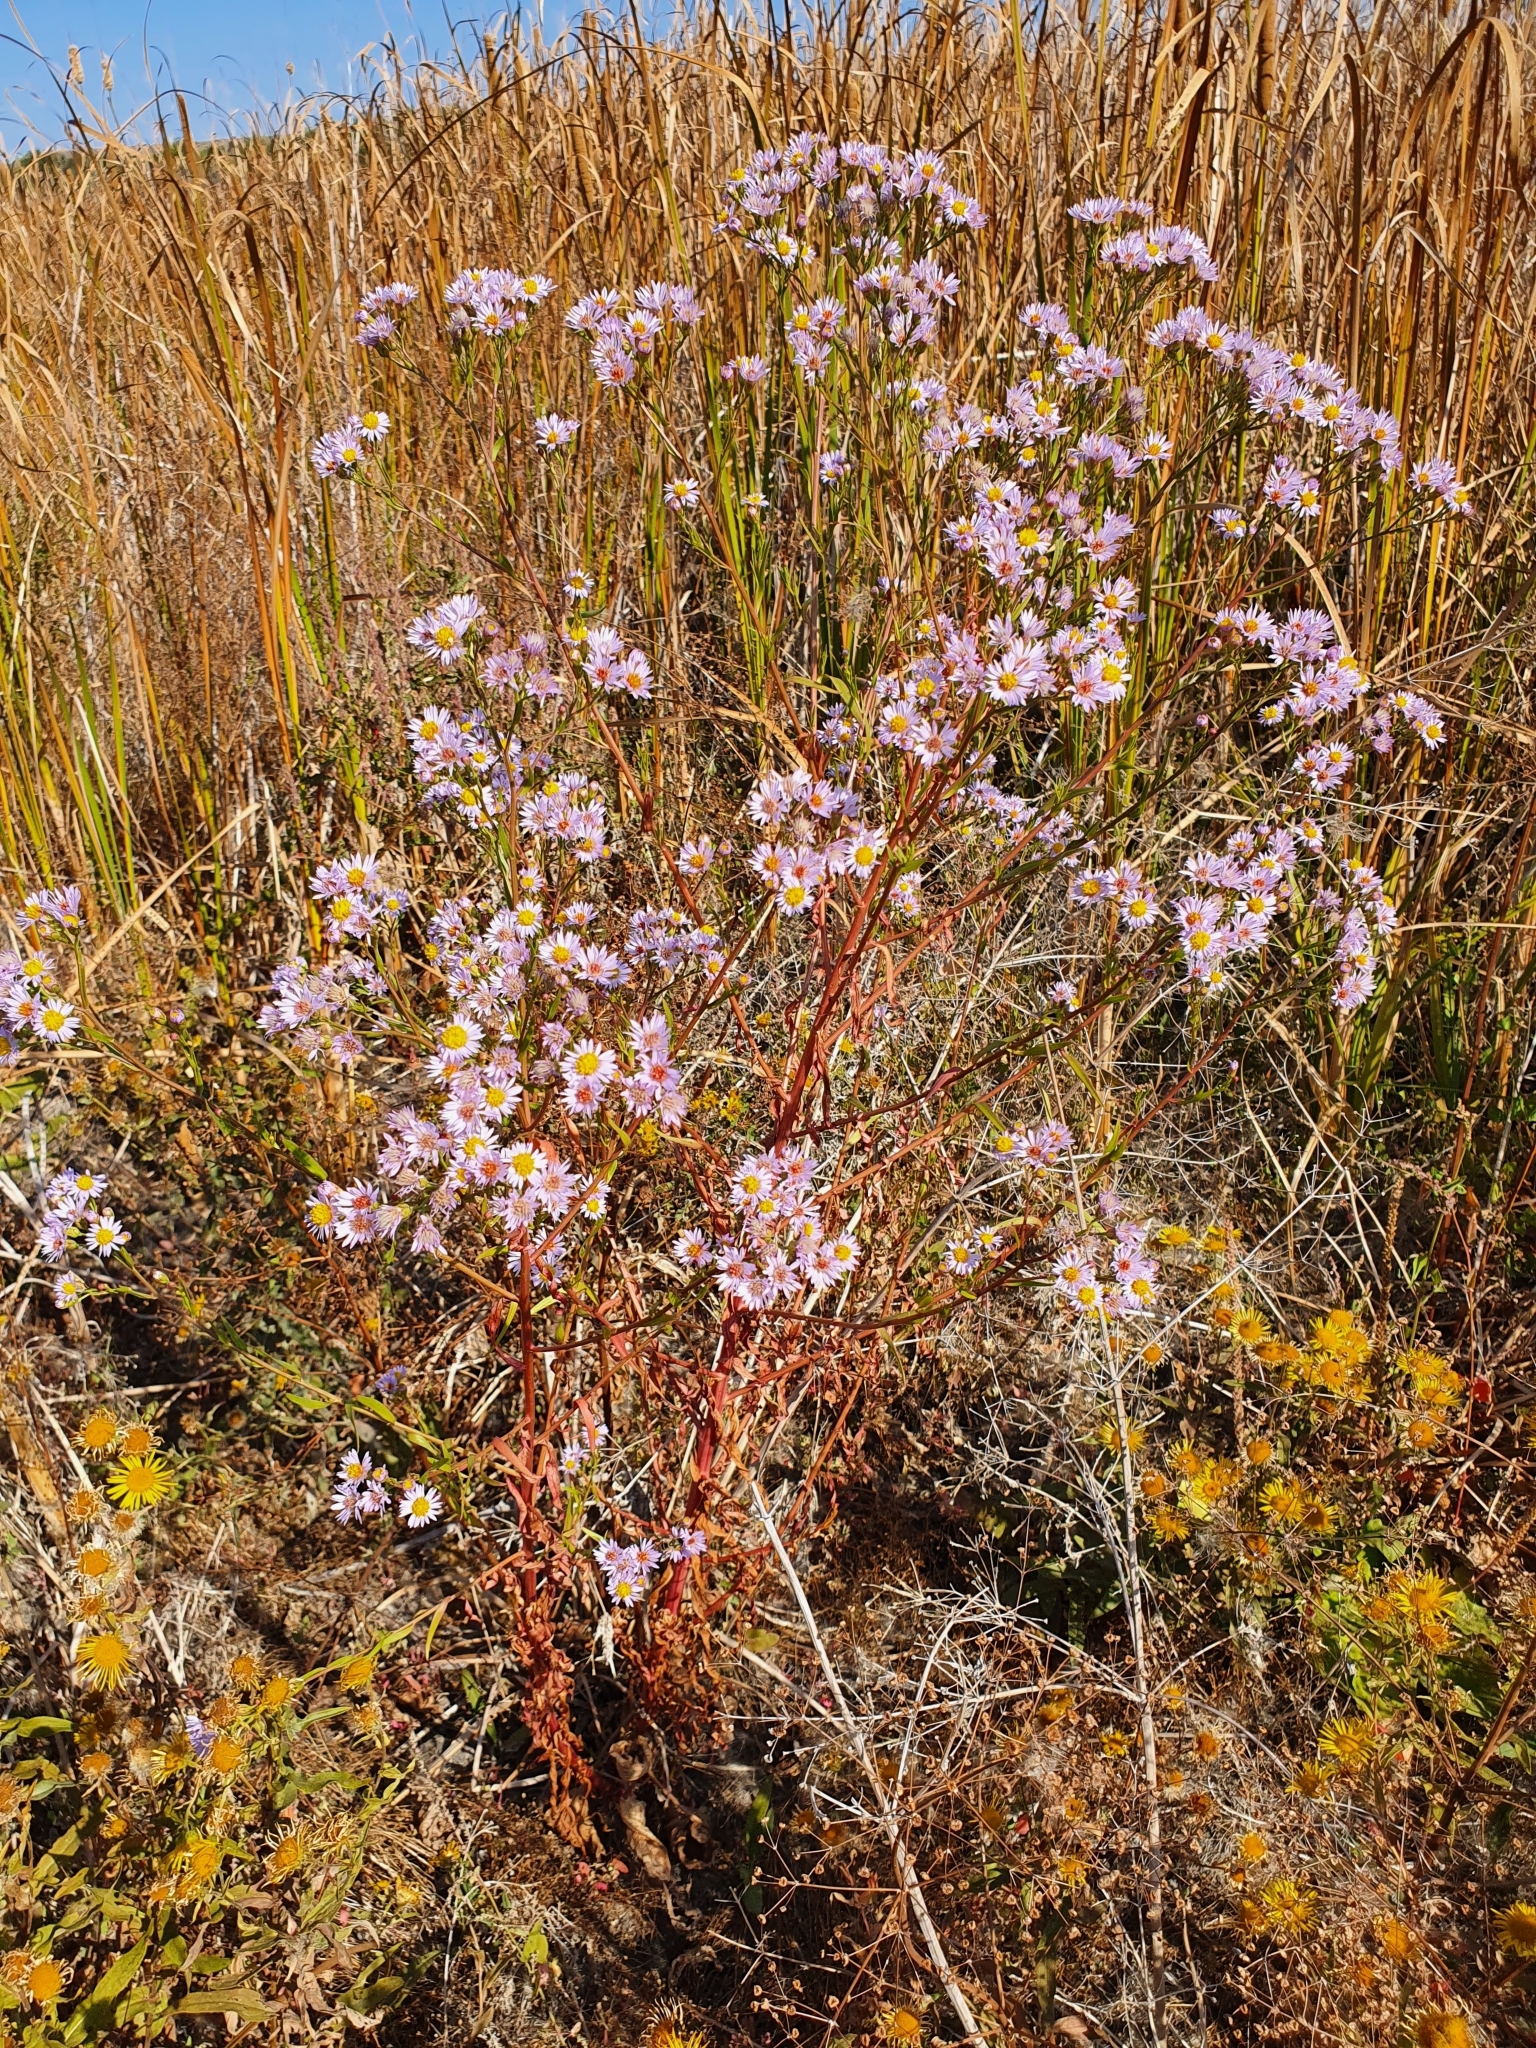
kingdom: Plantae
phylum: Tracheophyta
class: Magnoliopsida
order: Asterales
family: Asteraceae
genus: Tripolium
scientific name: Tripolium pannonicum
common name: Sea aster
